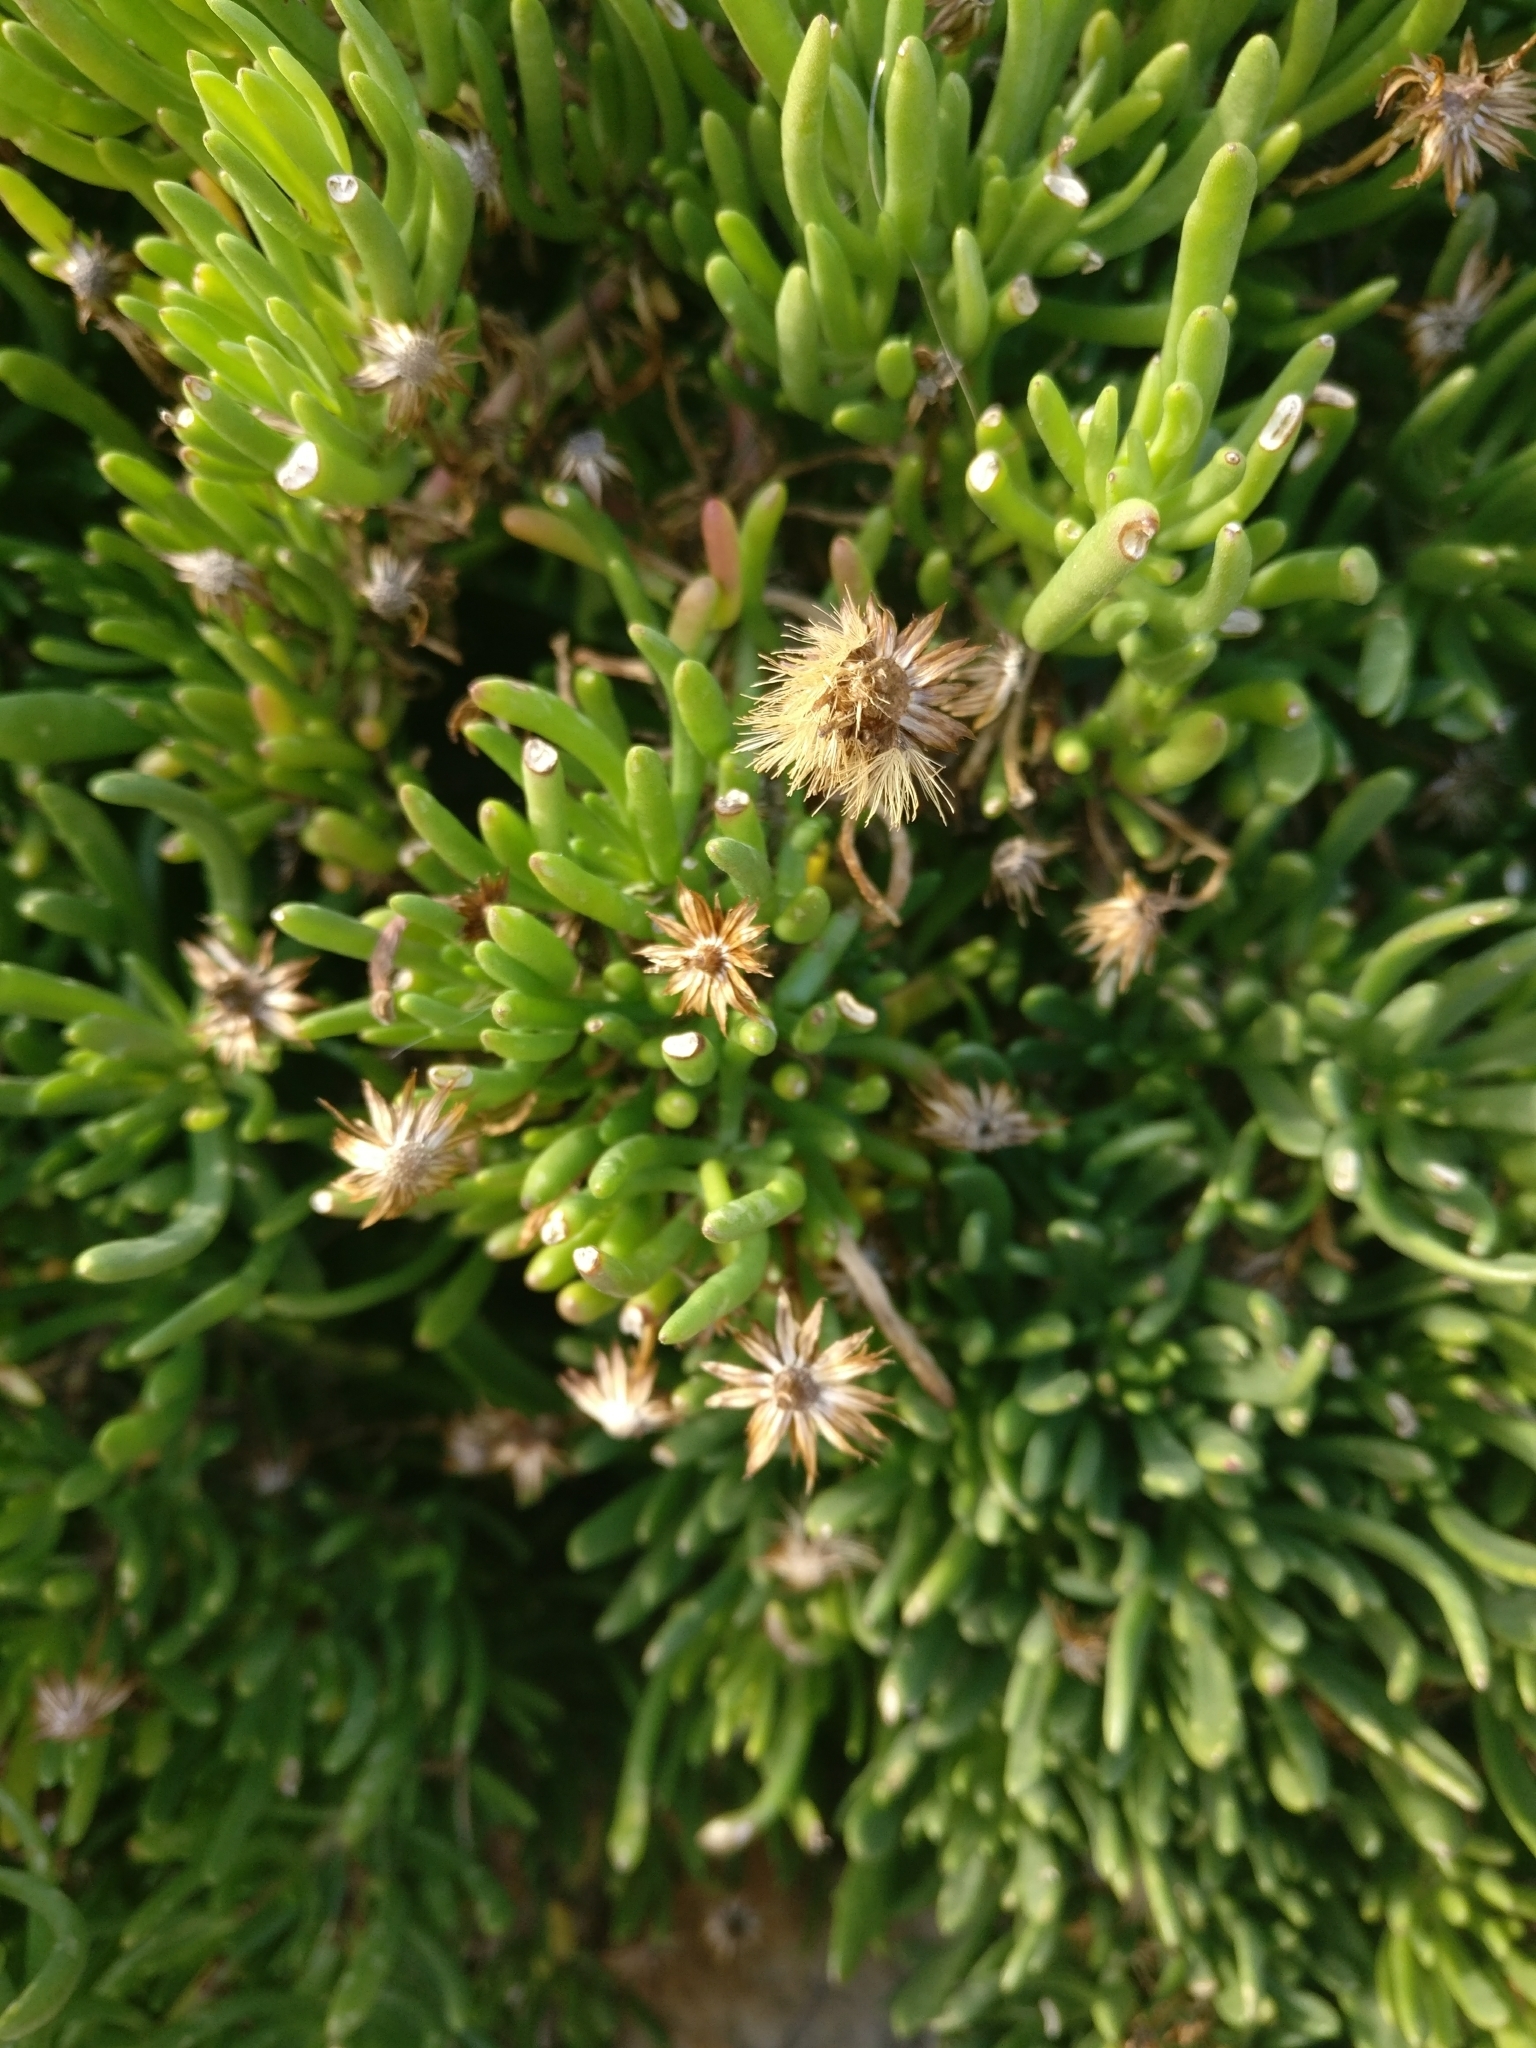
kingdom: Plantae
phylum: Tracheophyta
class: Magnoliopsida
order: Asterales
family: Asteraceae
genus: Limbarda
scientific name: Limbarda crithmoides
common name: Golden samphire
